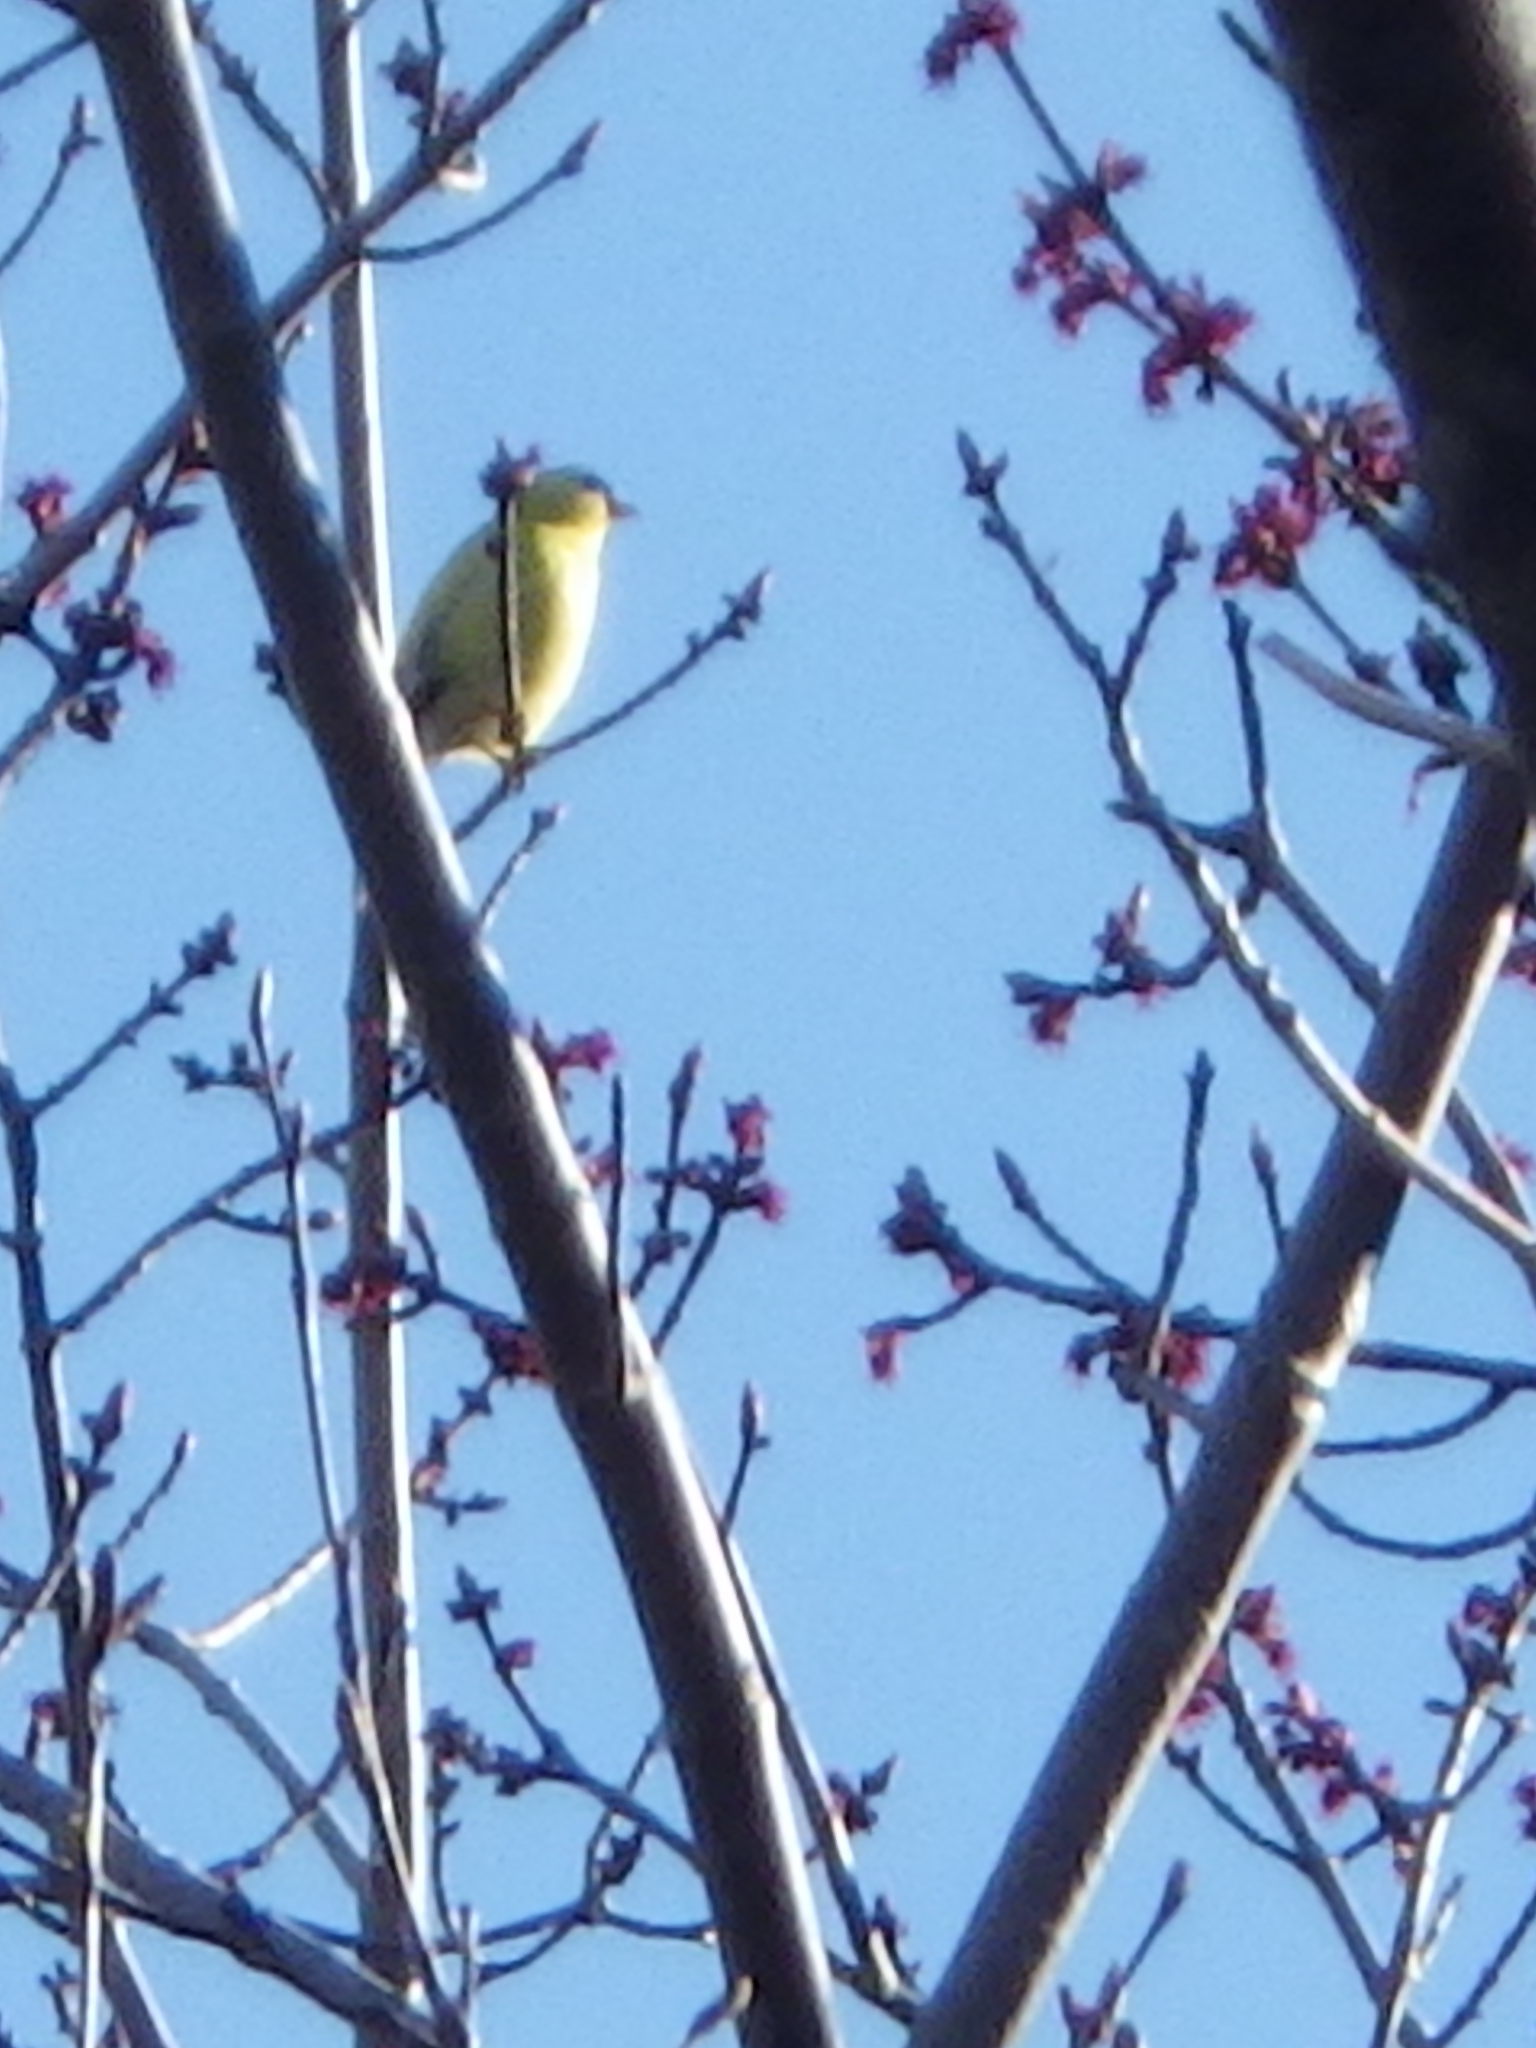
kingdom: Animalia
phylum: Chordata
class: Aves
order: Passeriformes
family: Fringillidae
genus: Spinus
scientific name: Spinus tristis
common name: American goldfinch
